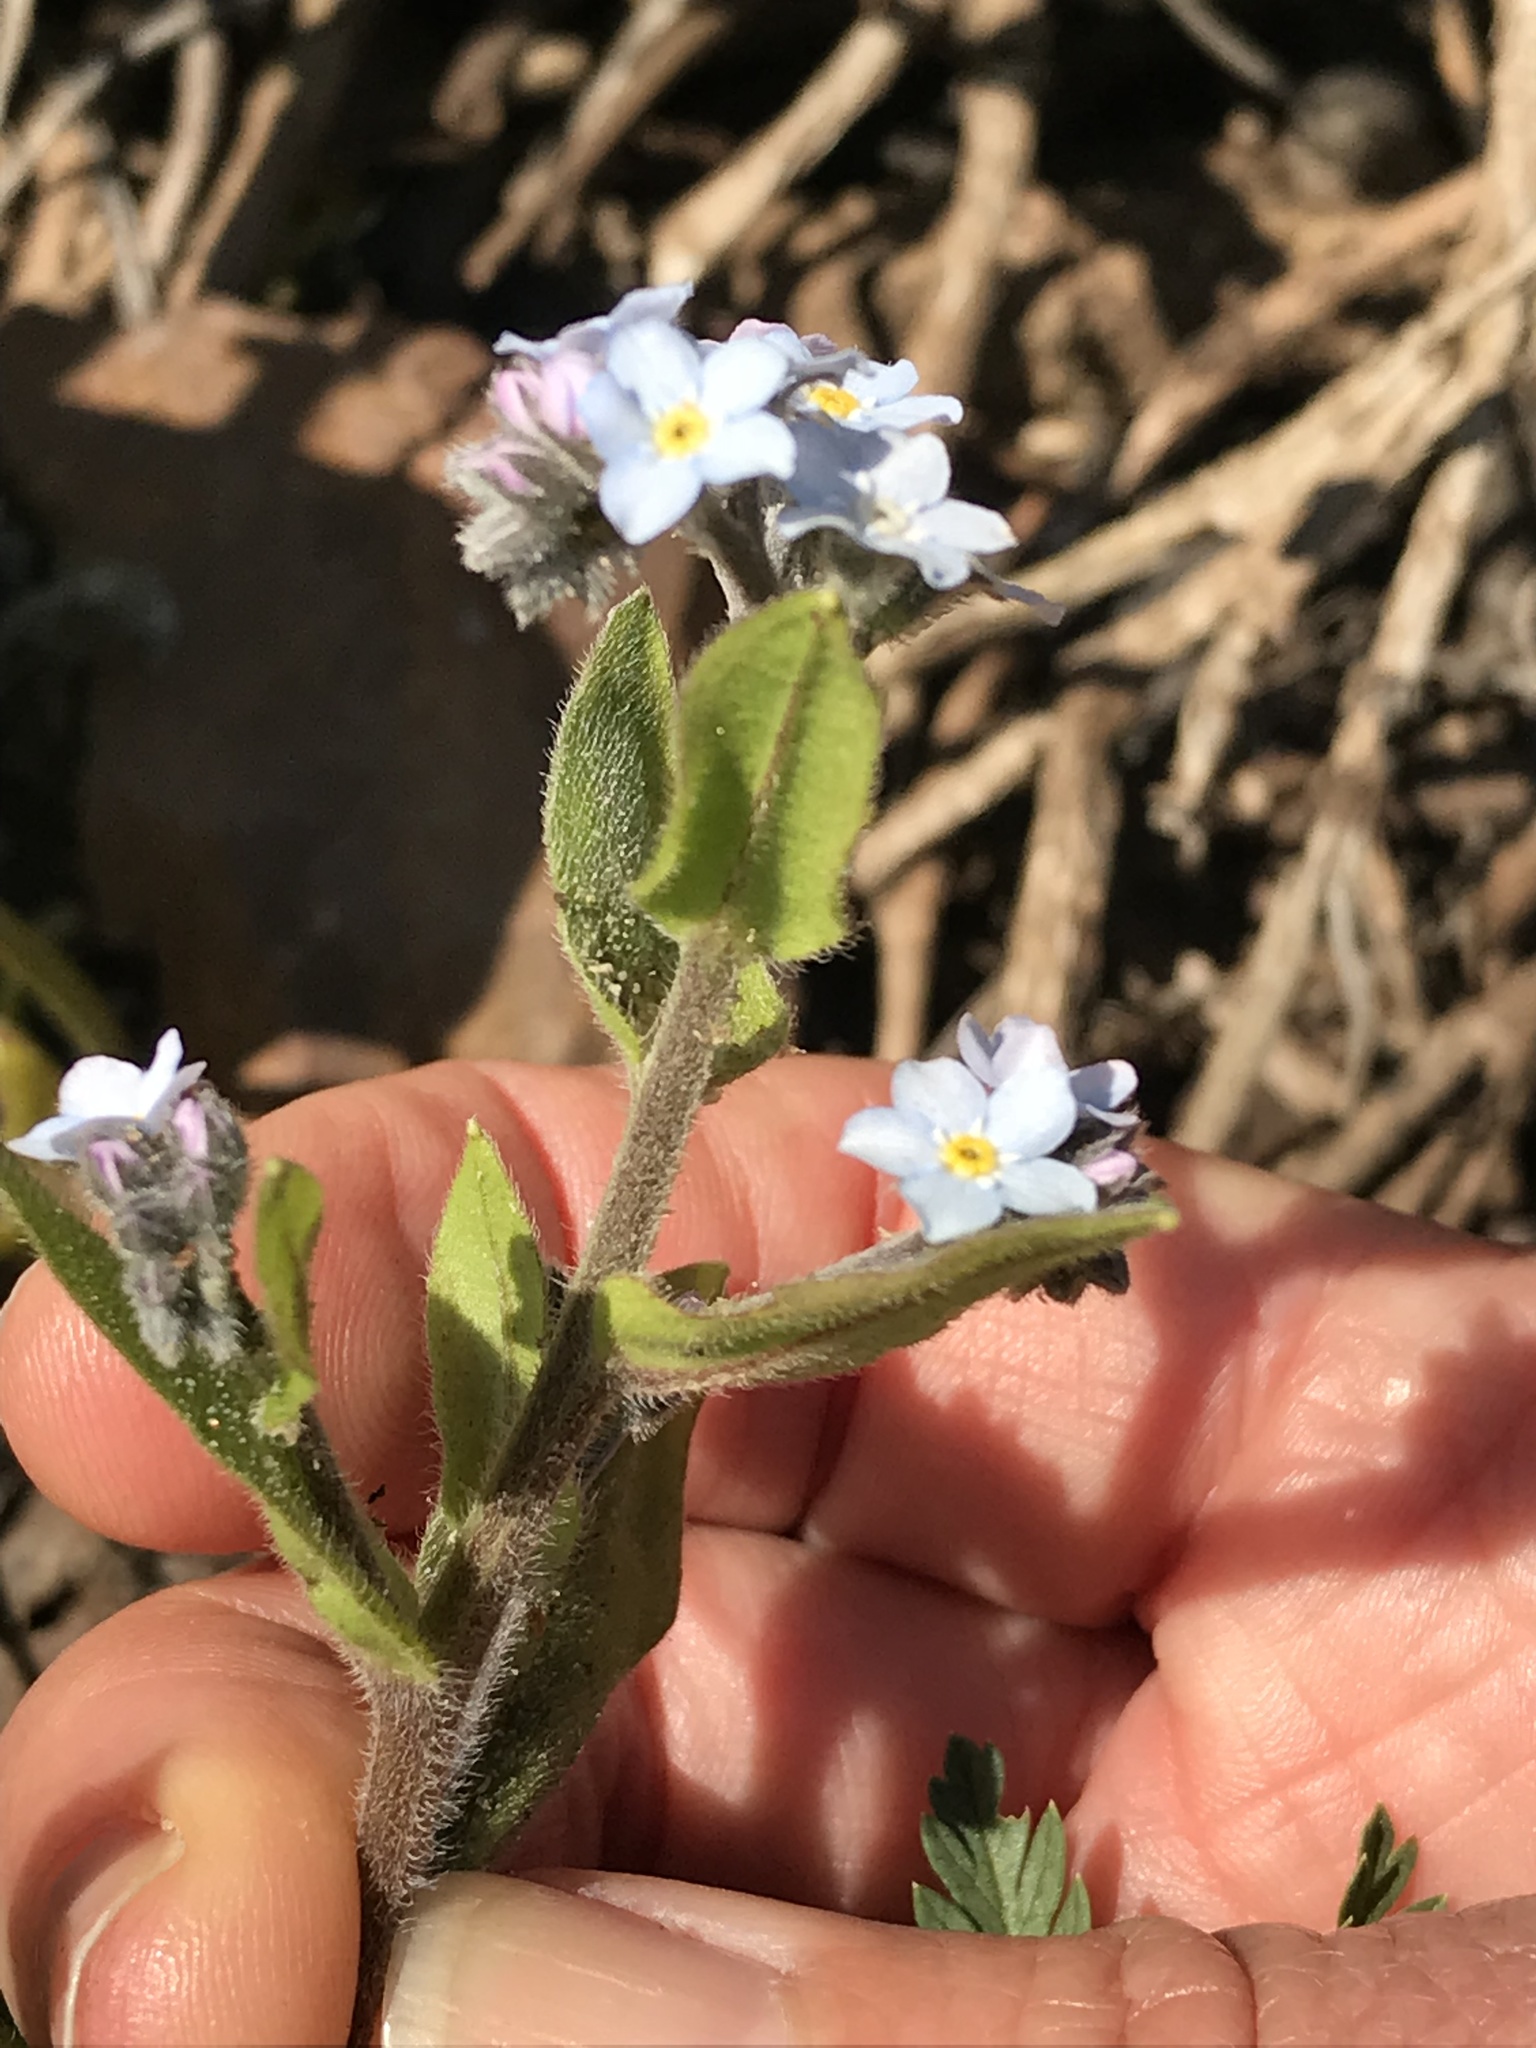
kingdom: Plantae
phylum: Tracheophyta
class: Magnoliopsida
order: Boraginales
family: Boraginaceae
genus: Myosotis
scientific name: Myosotis latifolia
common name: Broadleaf forget-me-not
